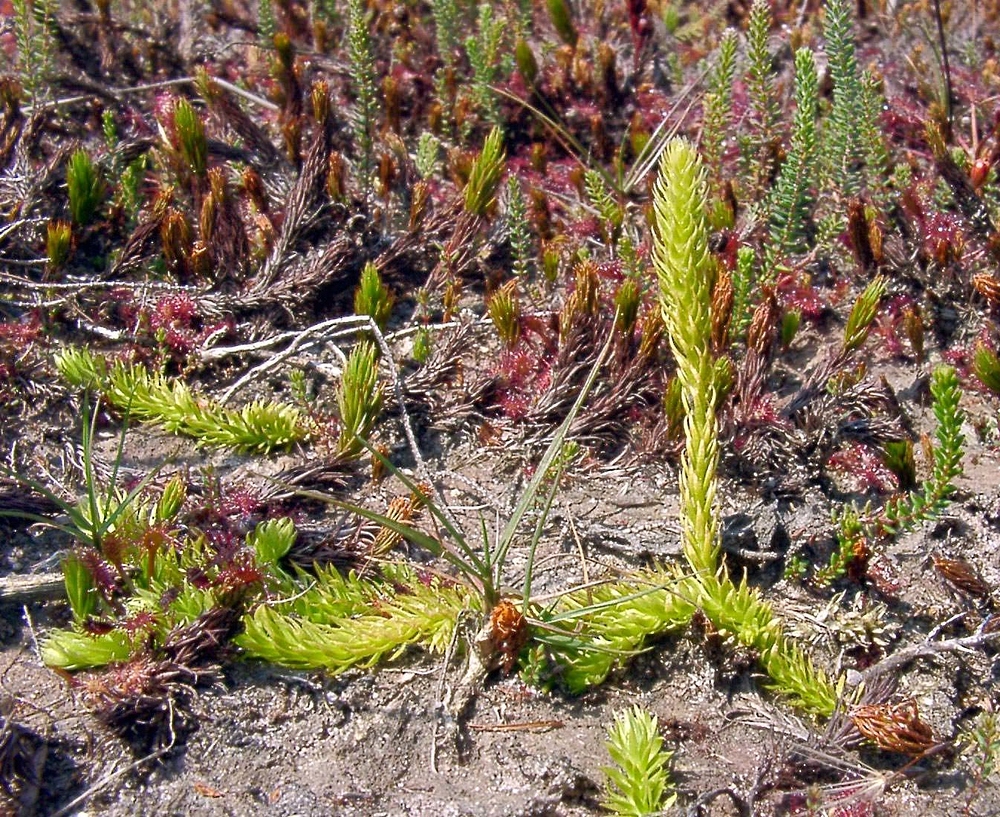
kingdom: Plantae
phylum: Tracheophyta
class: Lycopodiopsida
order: Lycopodiales
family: Lycopodiaceae
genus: Lycopodiella
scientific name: Lycopodiella inundata
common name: Marsh clubmoss
